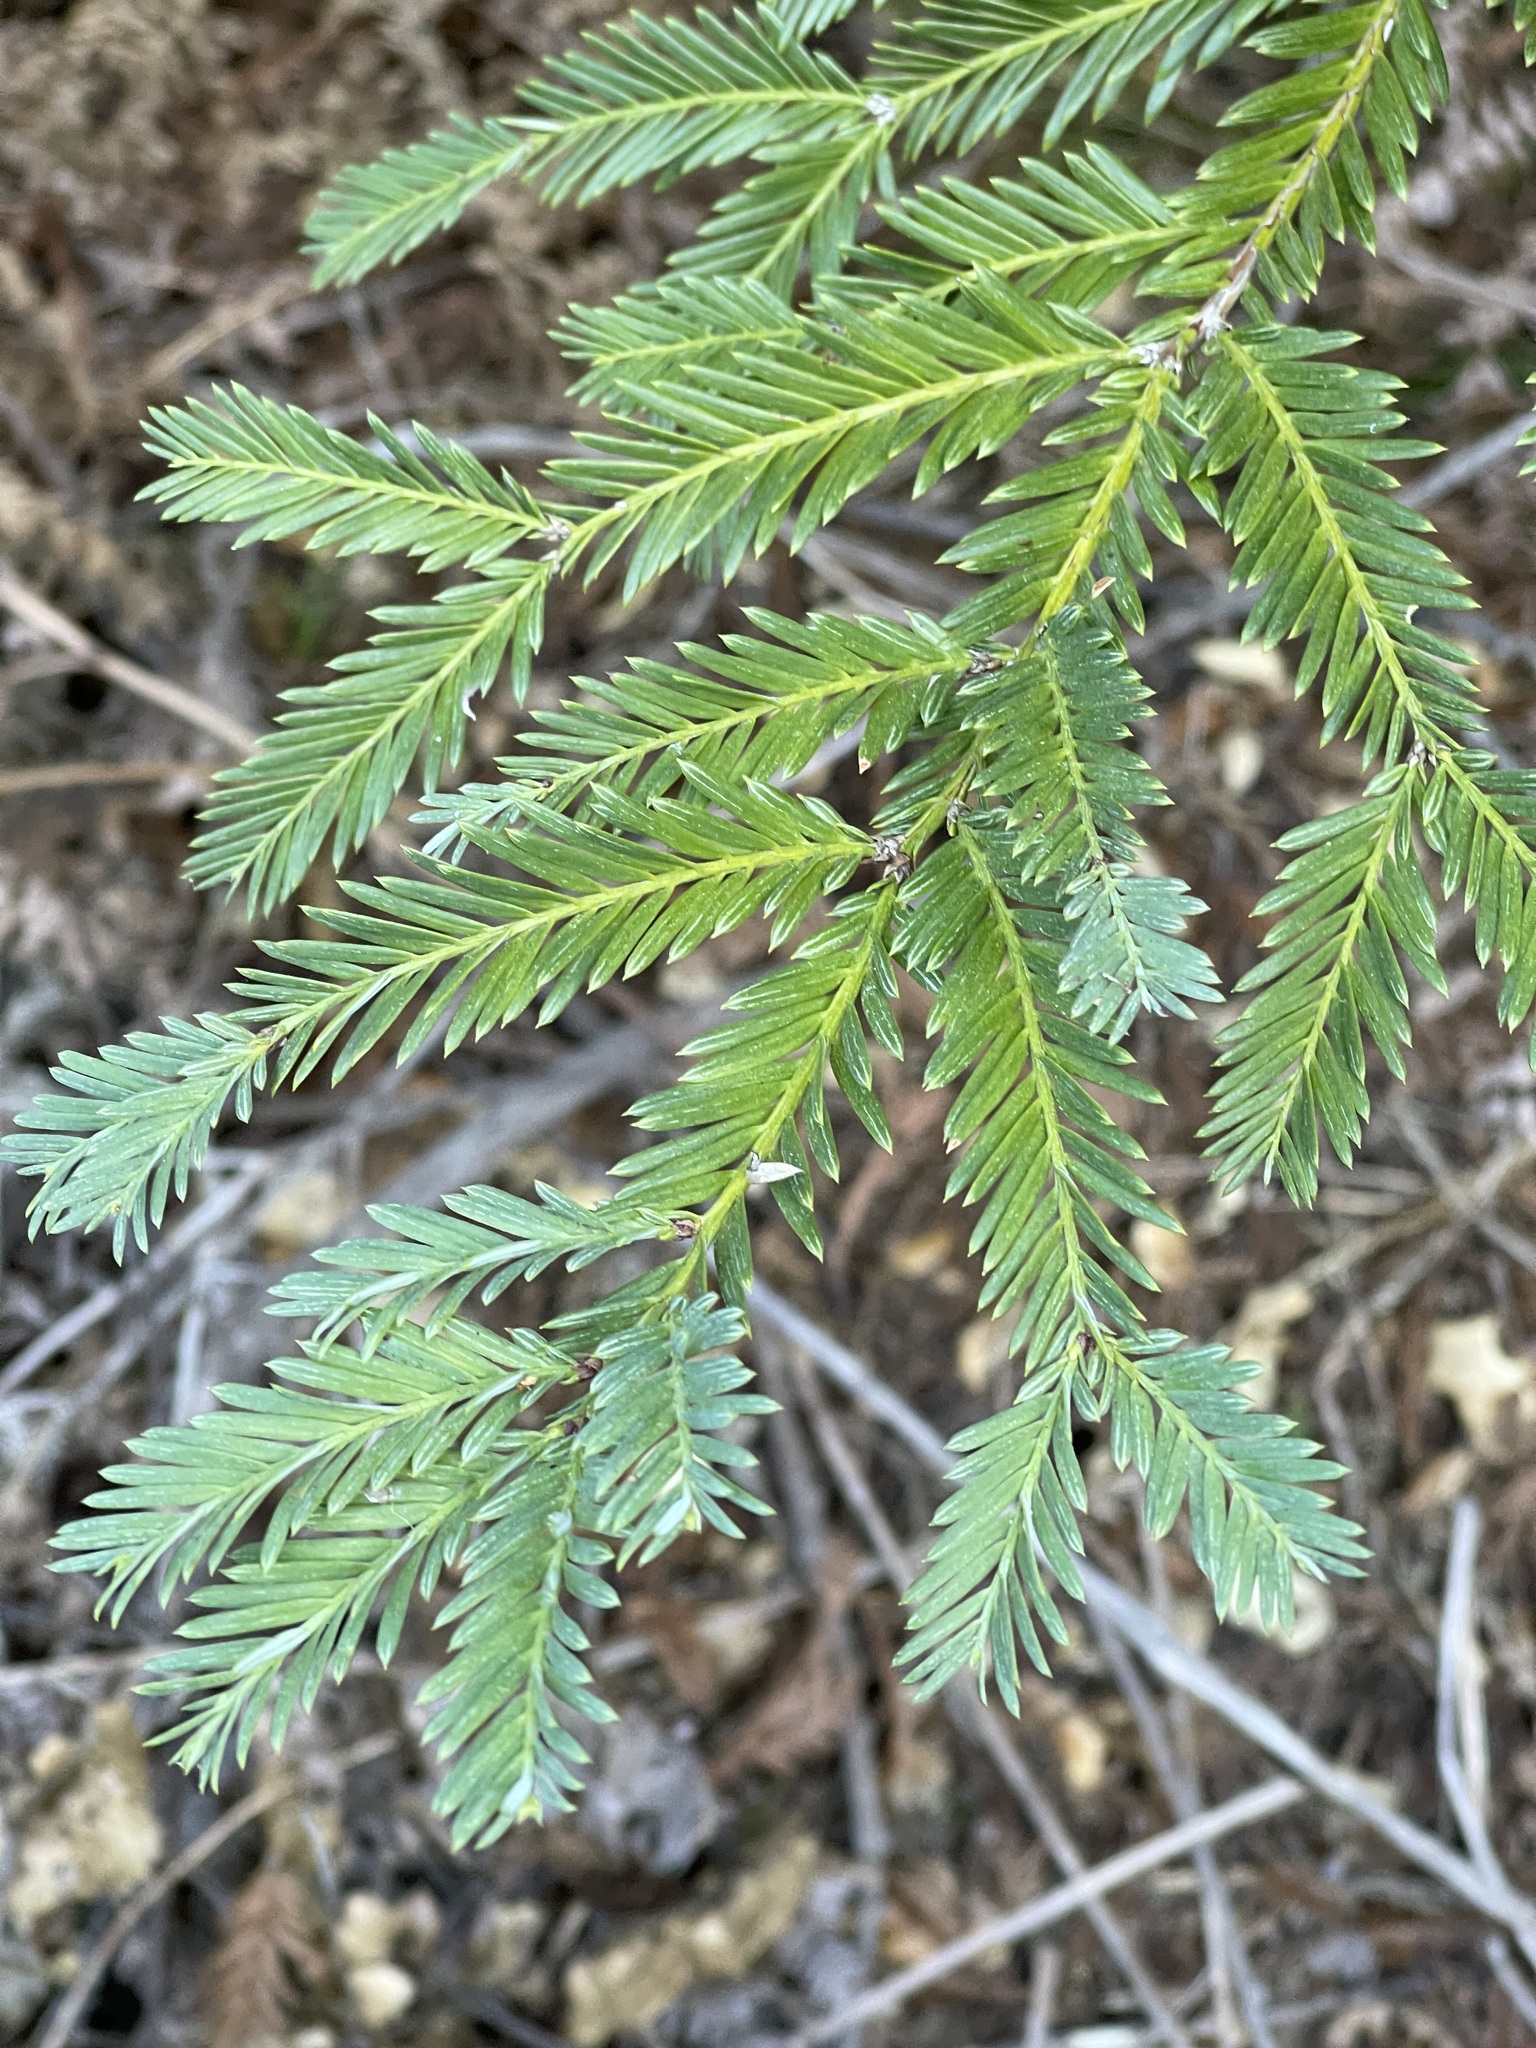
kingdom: Plantae
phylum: Tracheophyta
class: Pinopsida
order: Pinales
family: Cupressaceae
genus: Sequoia
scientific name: Sequoia sempervirens
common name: Coast redwood
